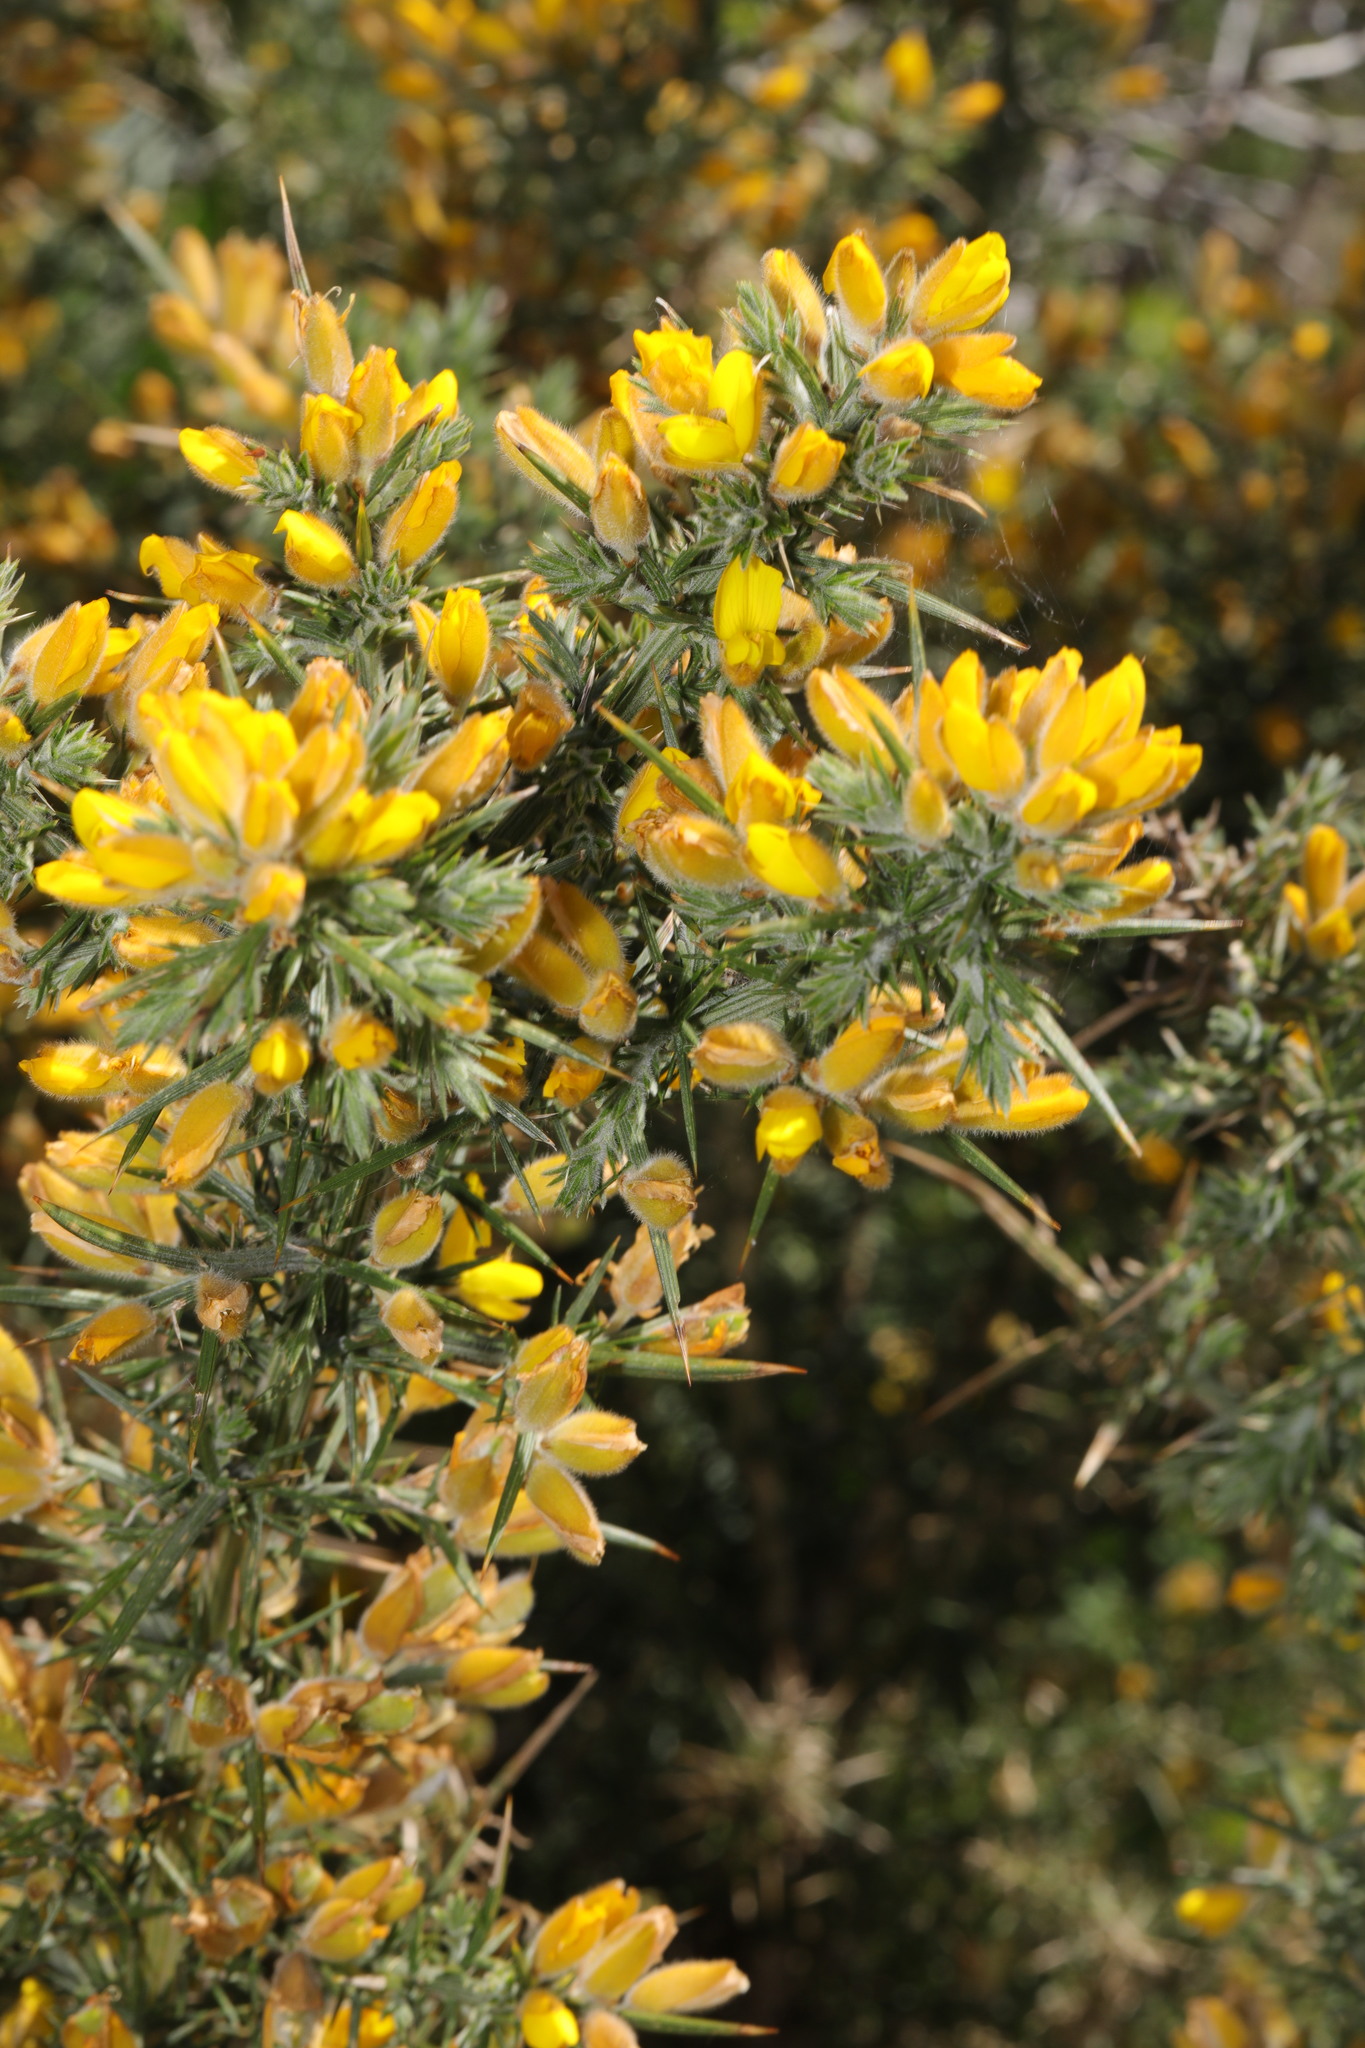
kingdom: Plantae
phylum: Tracheophyta
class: Magnoliopsida
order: Fabales
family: Fabaceae
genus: Ulex
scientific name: Ulex europaeus
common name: Common gorse
